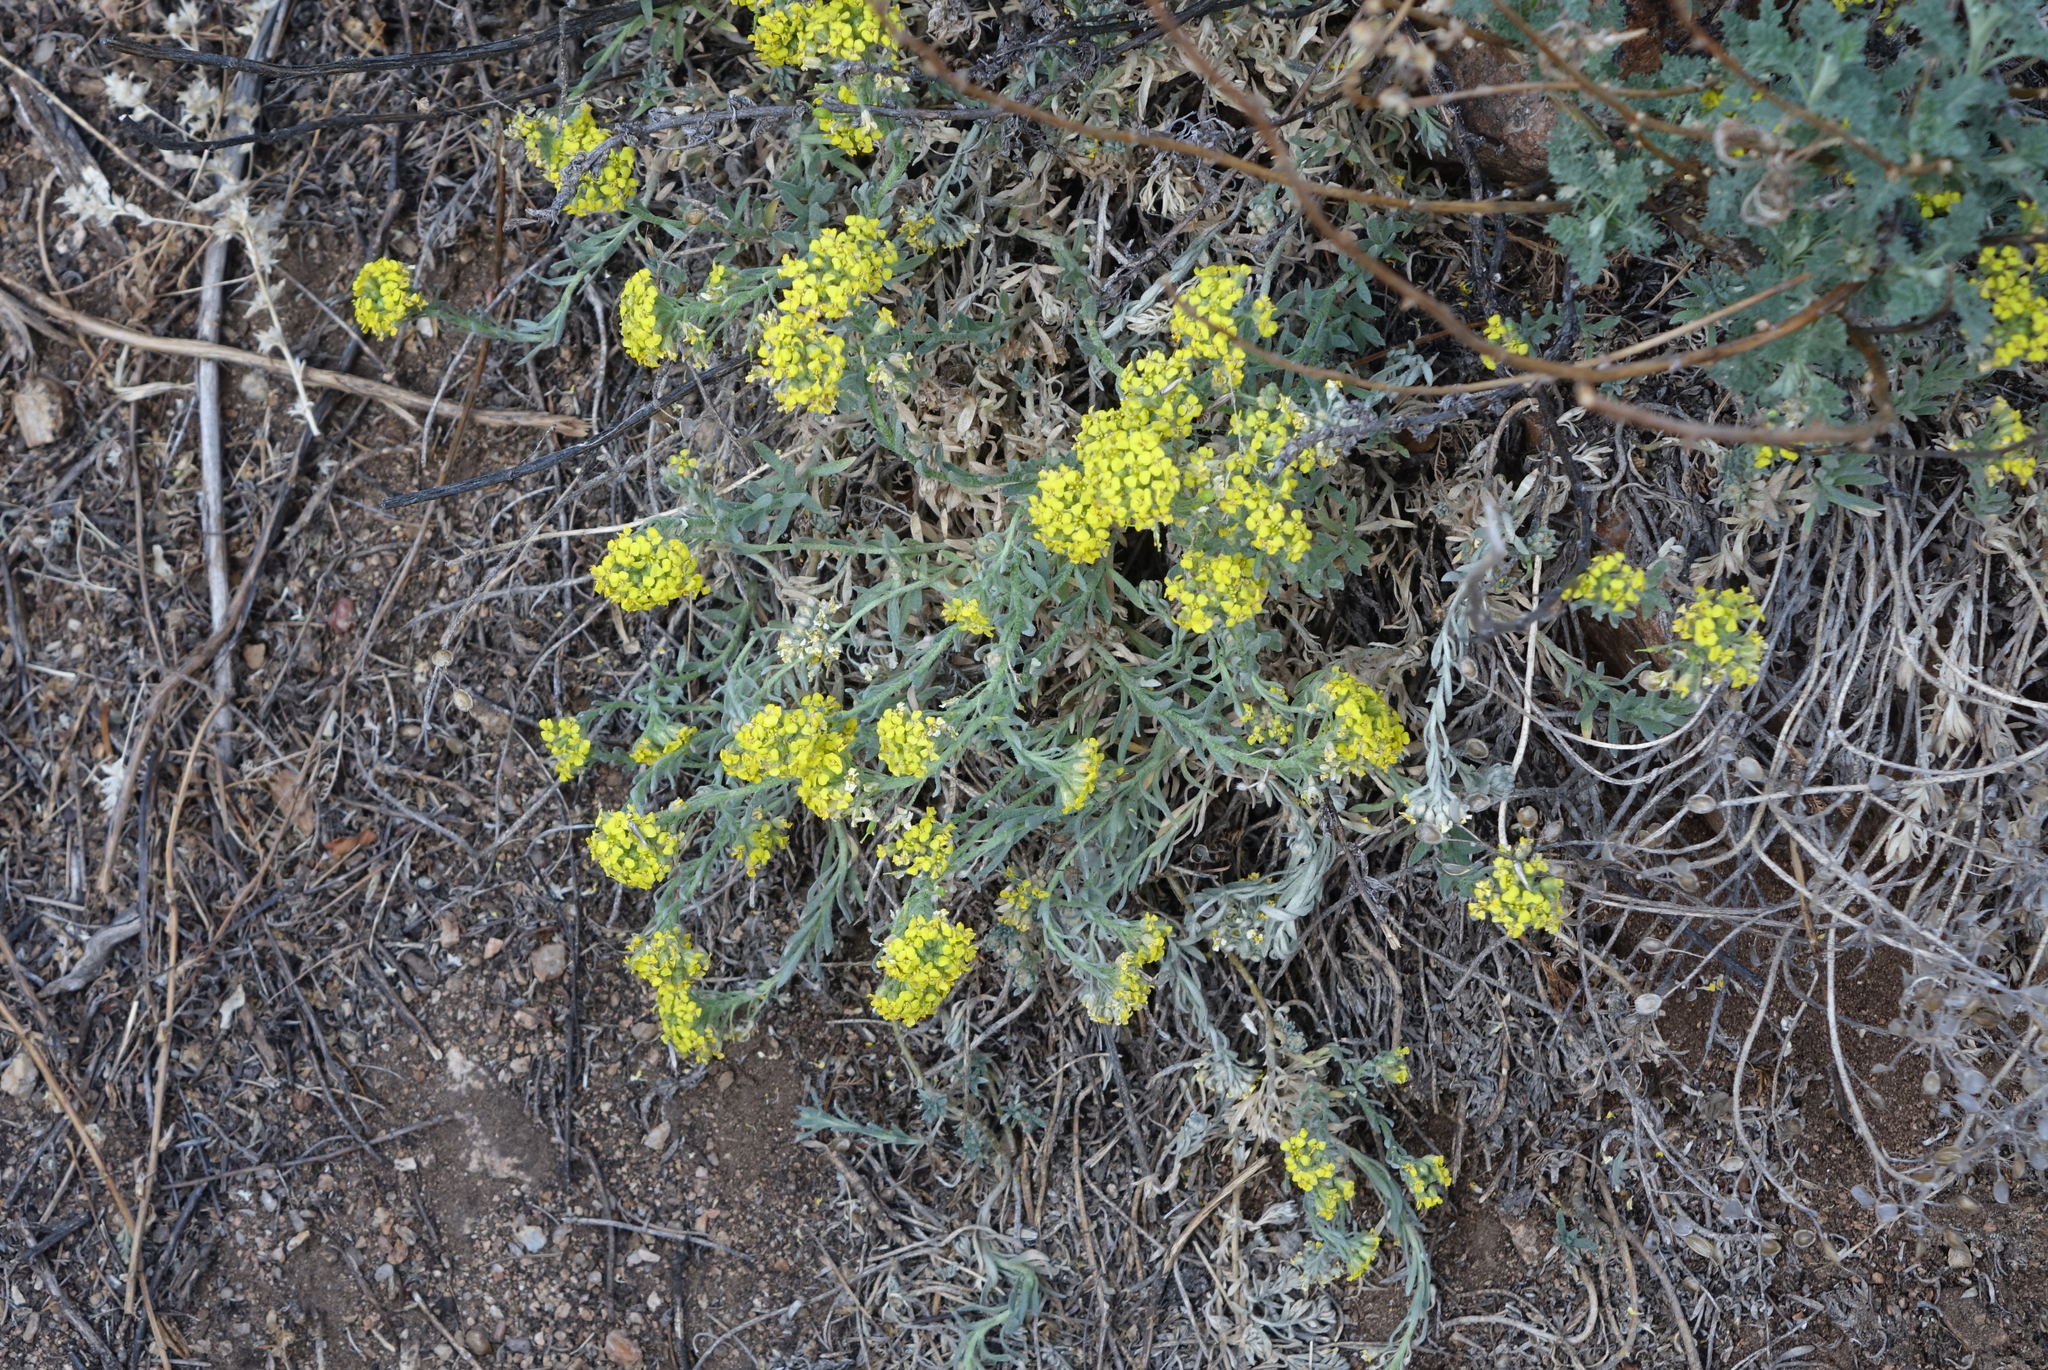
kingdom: Plantae
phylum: Tracheophyta
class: Magnoliopsida
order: Brassicales
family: Brassicaceae
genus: Alyssum
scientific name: Alyssum lenense
